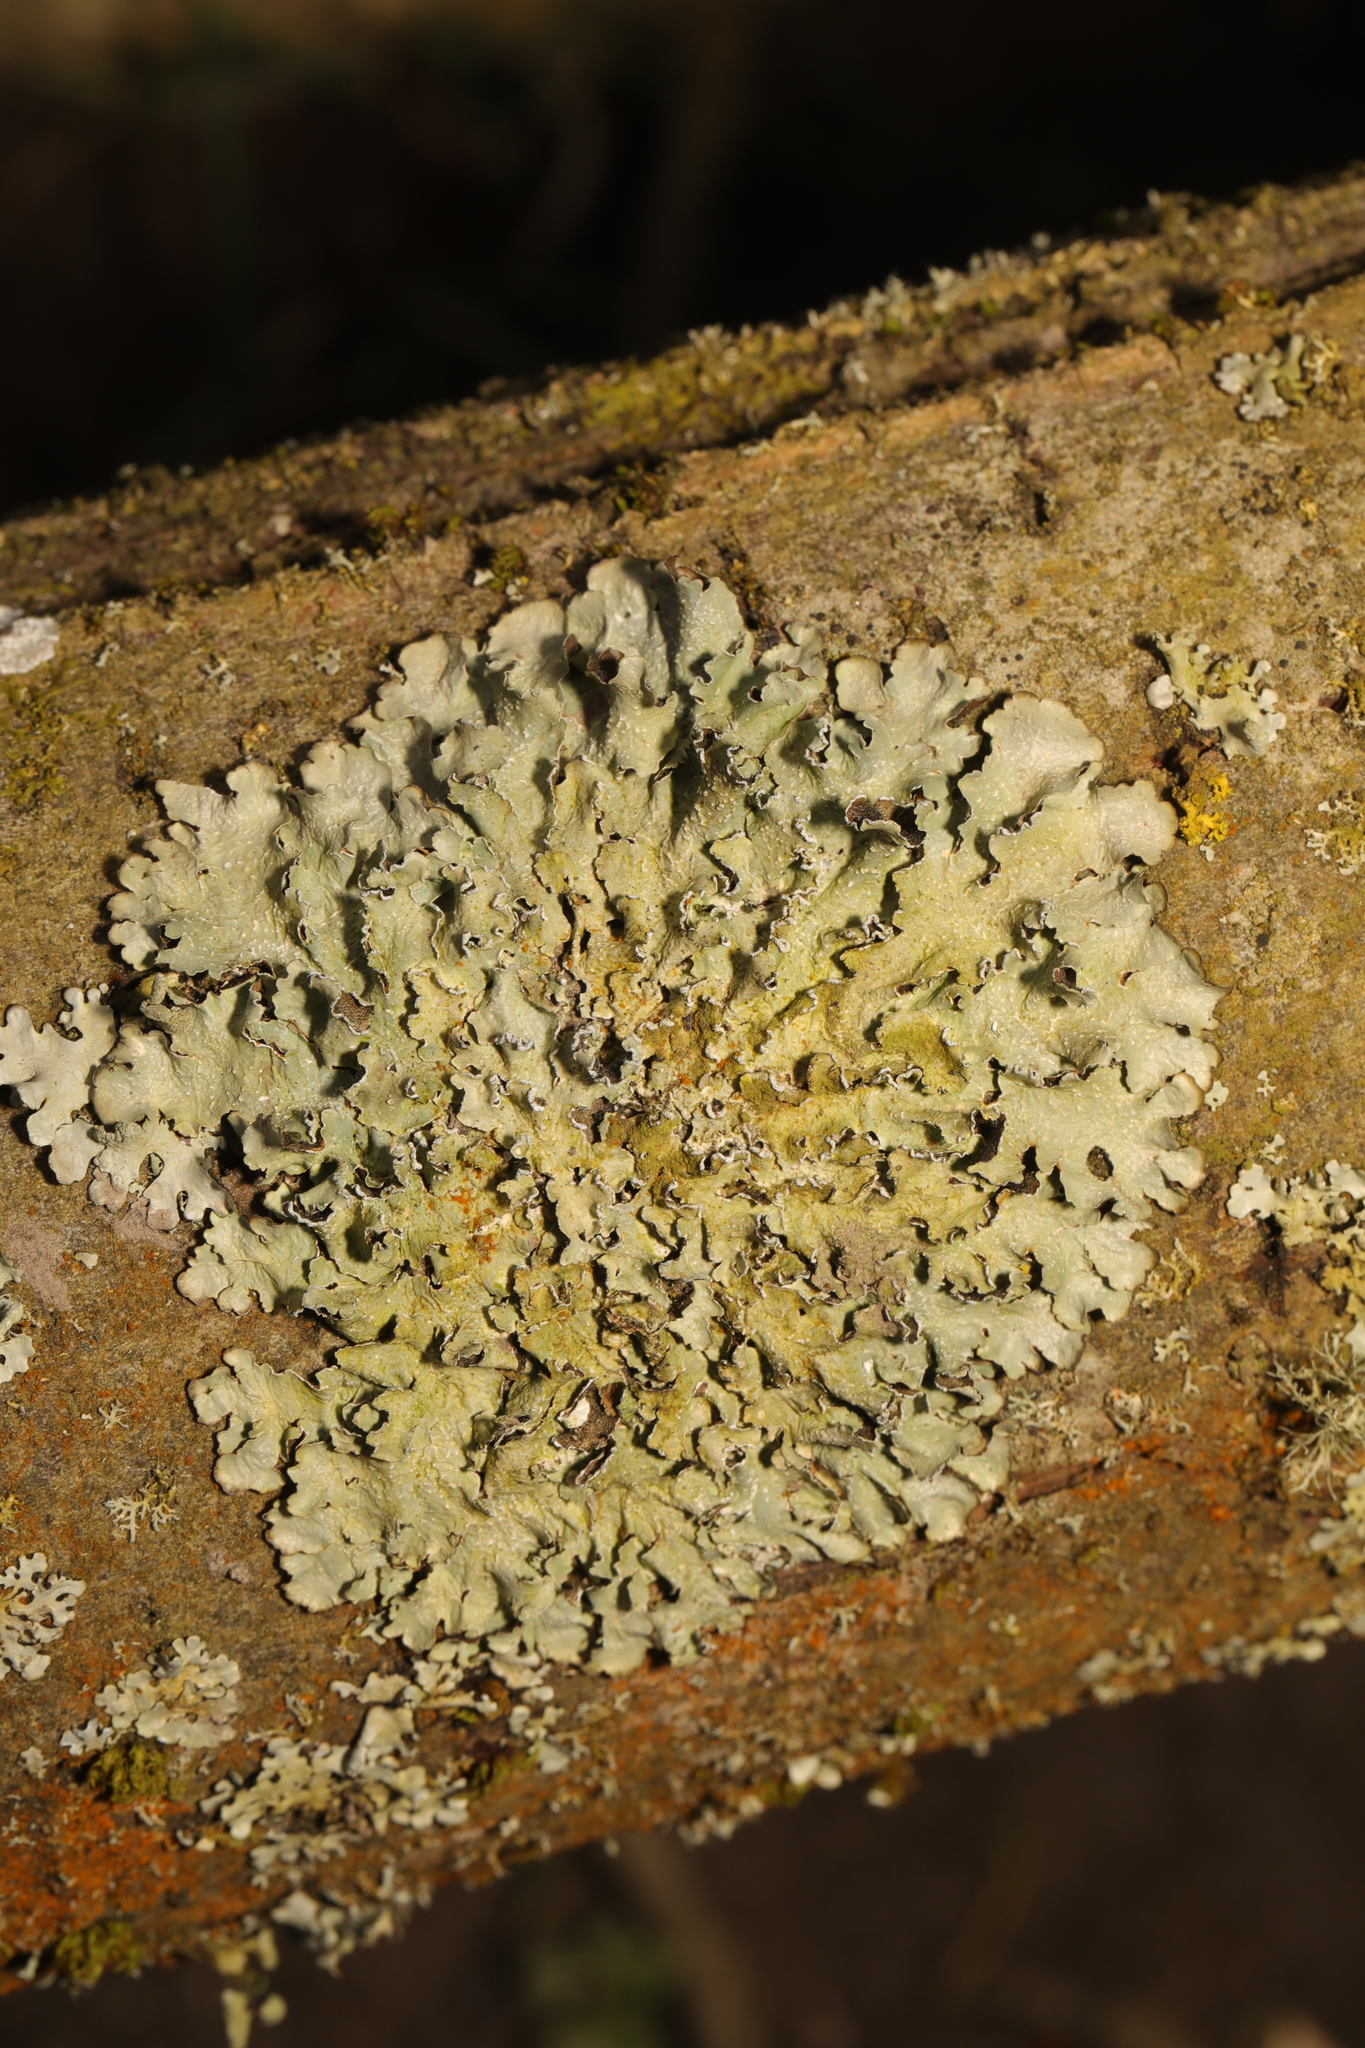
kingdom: Fungi
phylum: Ascomycota
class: Lecanoromycetes
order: Lecanorales
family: Parmeliaceae
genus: Punctelia
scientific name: Punctelia jeckeri
